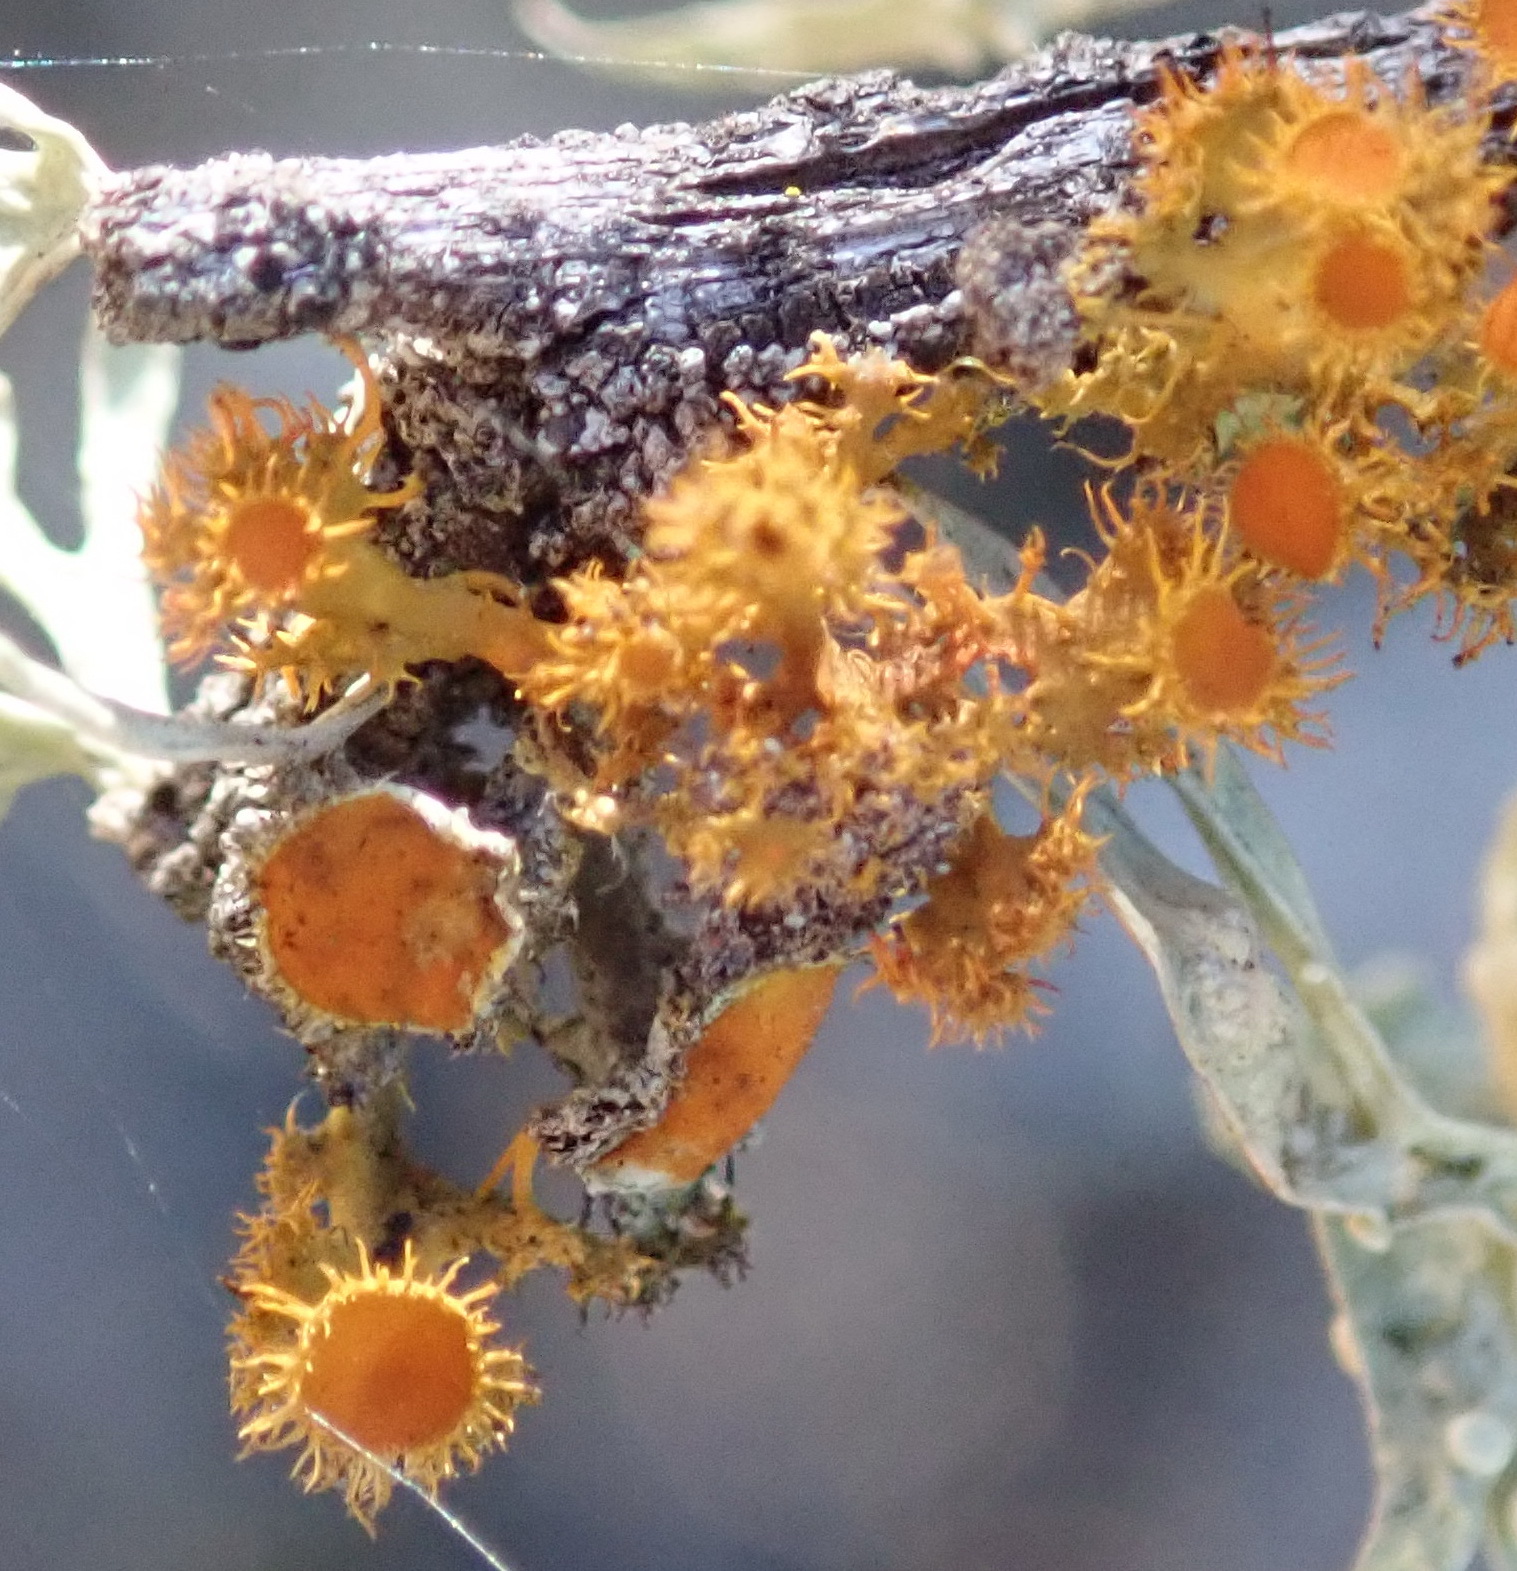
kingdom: Fungi
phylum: Ascomycota
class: Lecanoromycetes
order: Teloschistales
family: Teloschistaceae
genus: Niorma
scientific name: Niorma chrysophthalma
